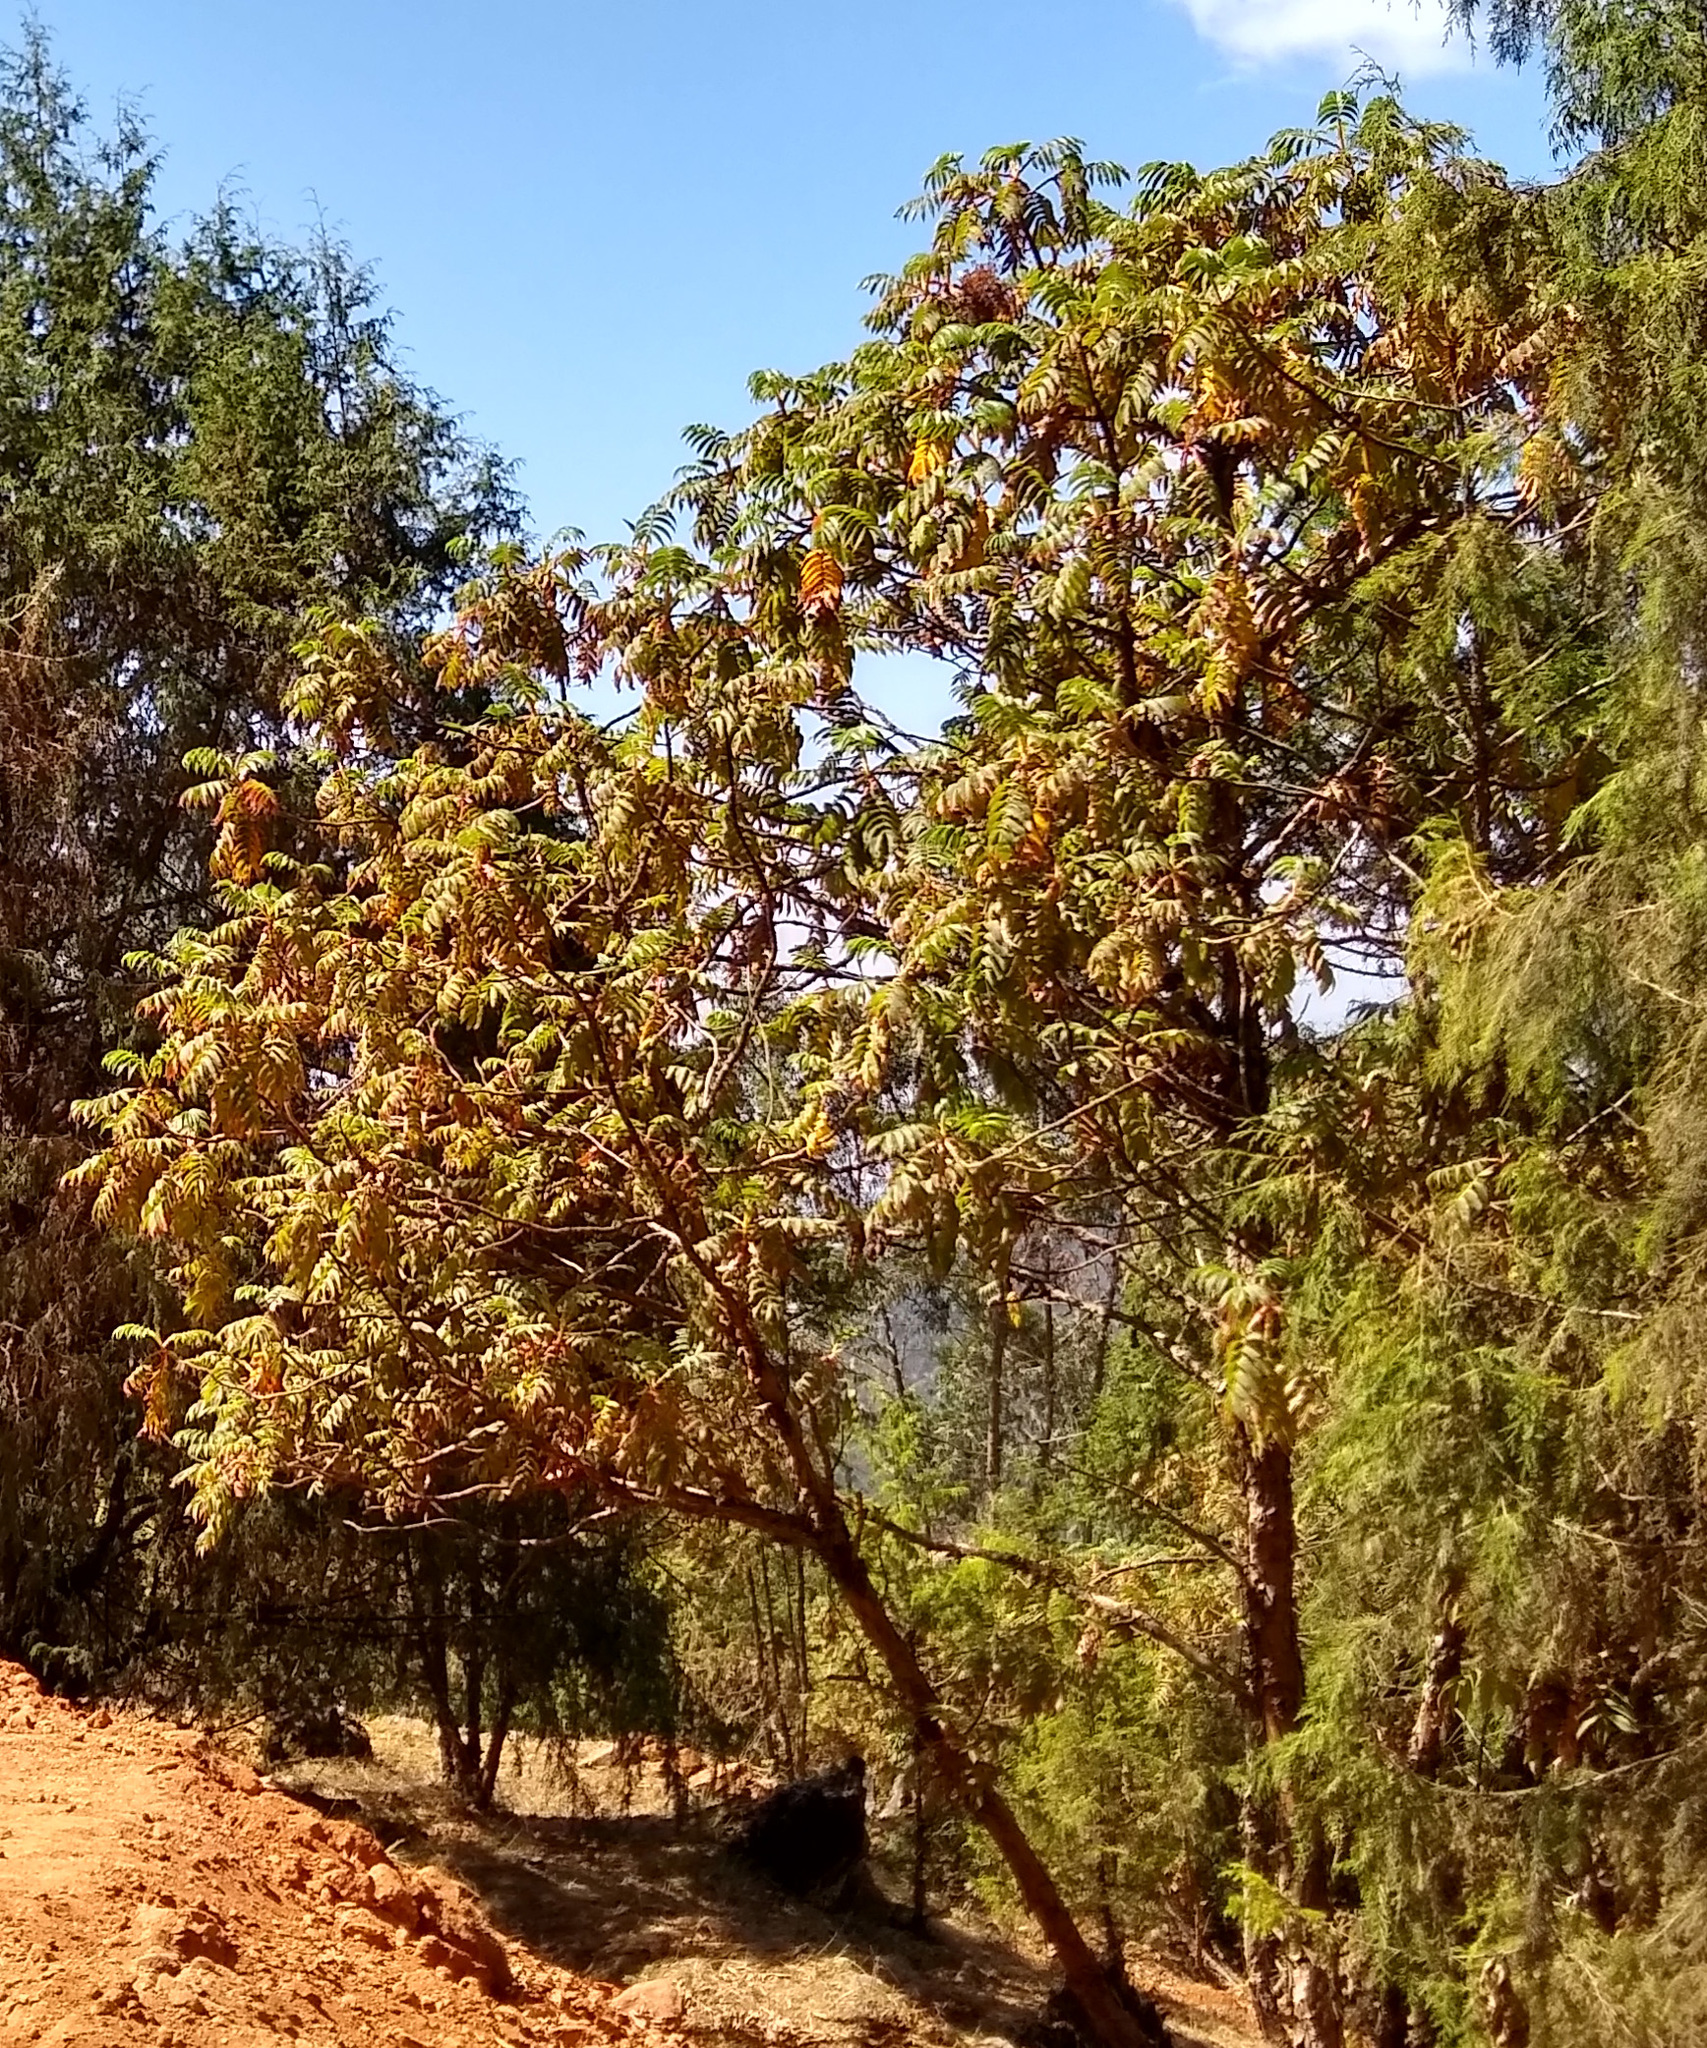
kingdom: Plantae
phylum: Tracheophyta
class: Magnoliopsida
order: Rosales
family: Rosaceae
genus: Hagenia
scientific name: Hagenia abyssinica
